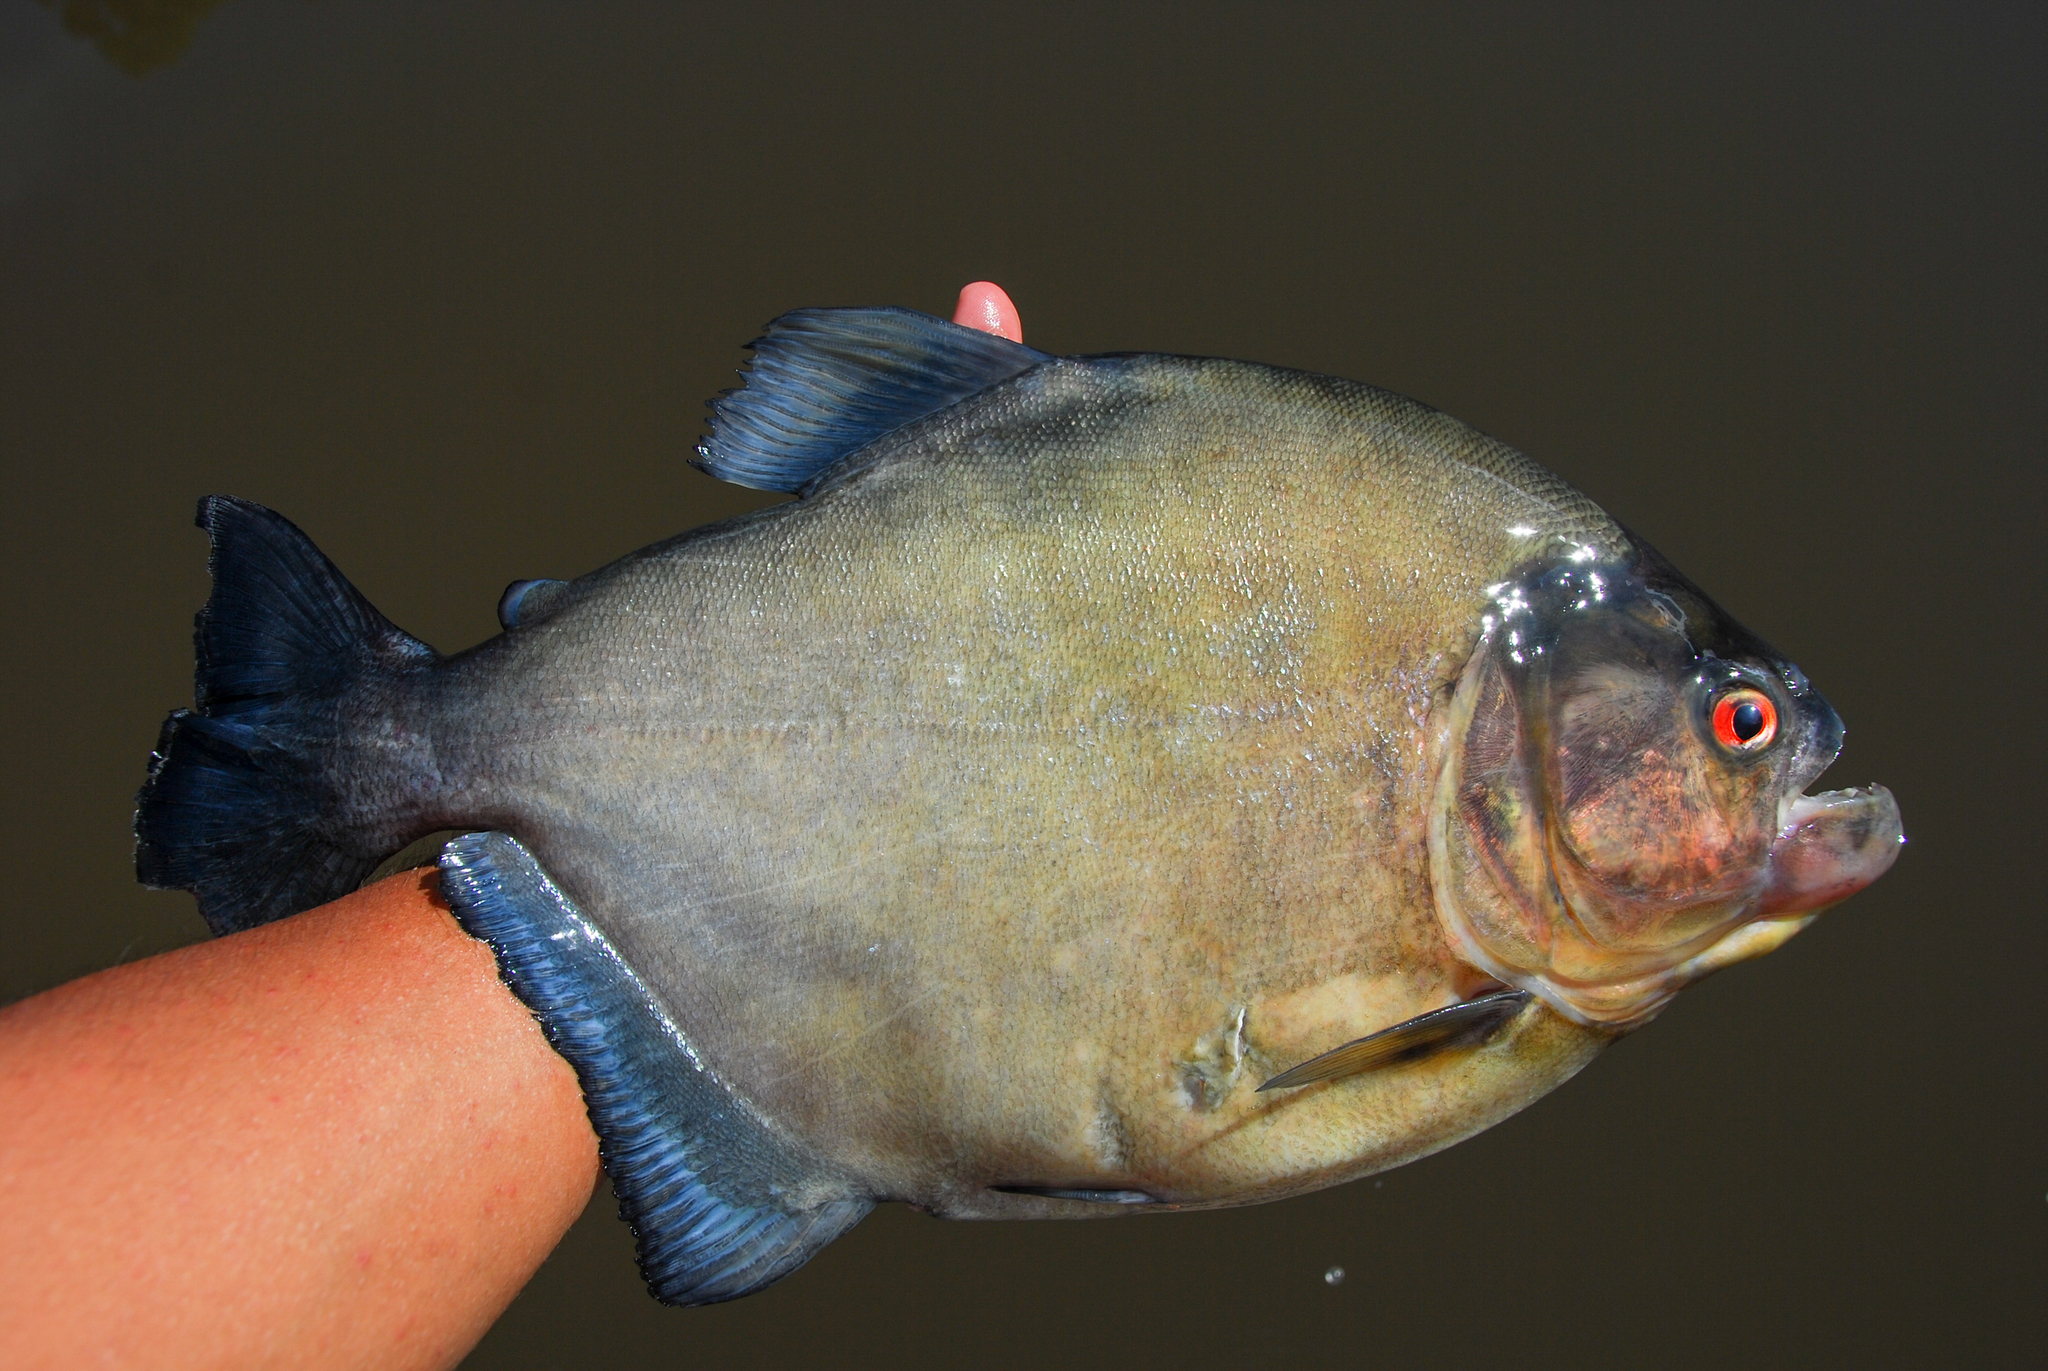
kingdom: Animalia
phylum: Chordata
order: Characiformes
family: Serrasalmidae
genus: Serrasalmus
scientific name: Serrasalmus rhombeus
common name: Redeye piranha
